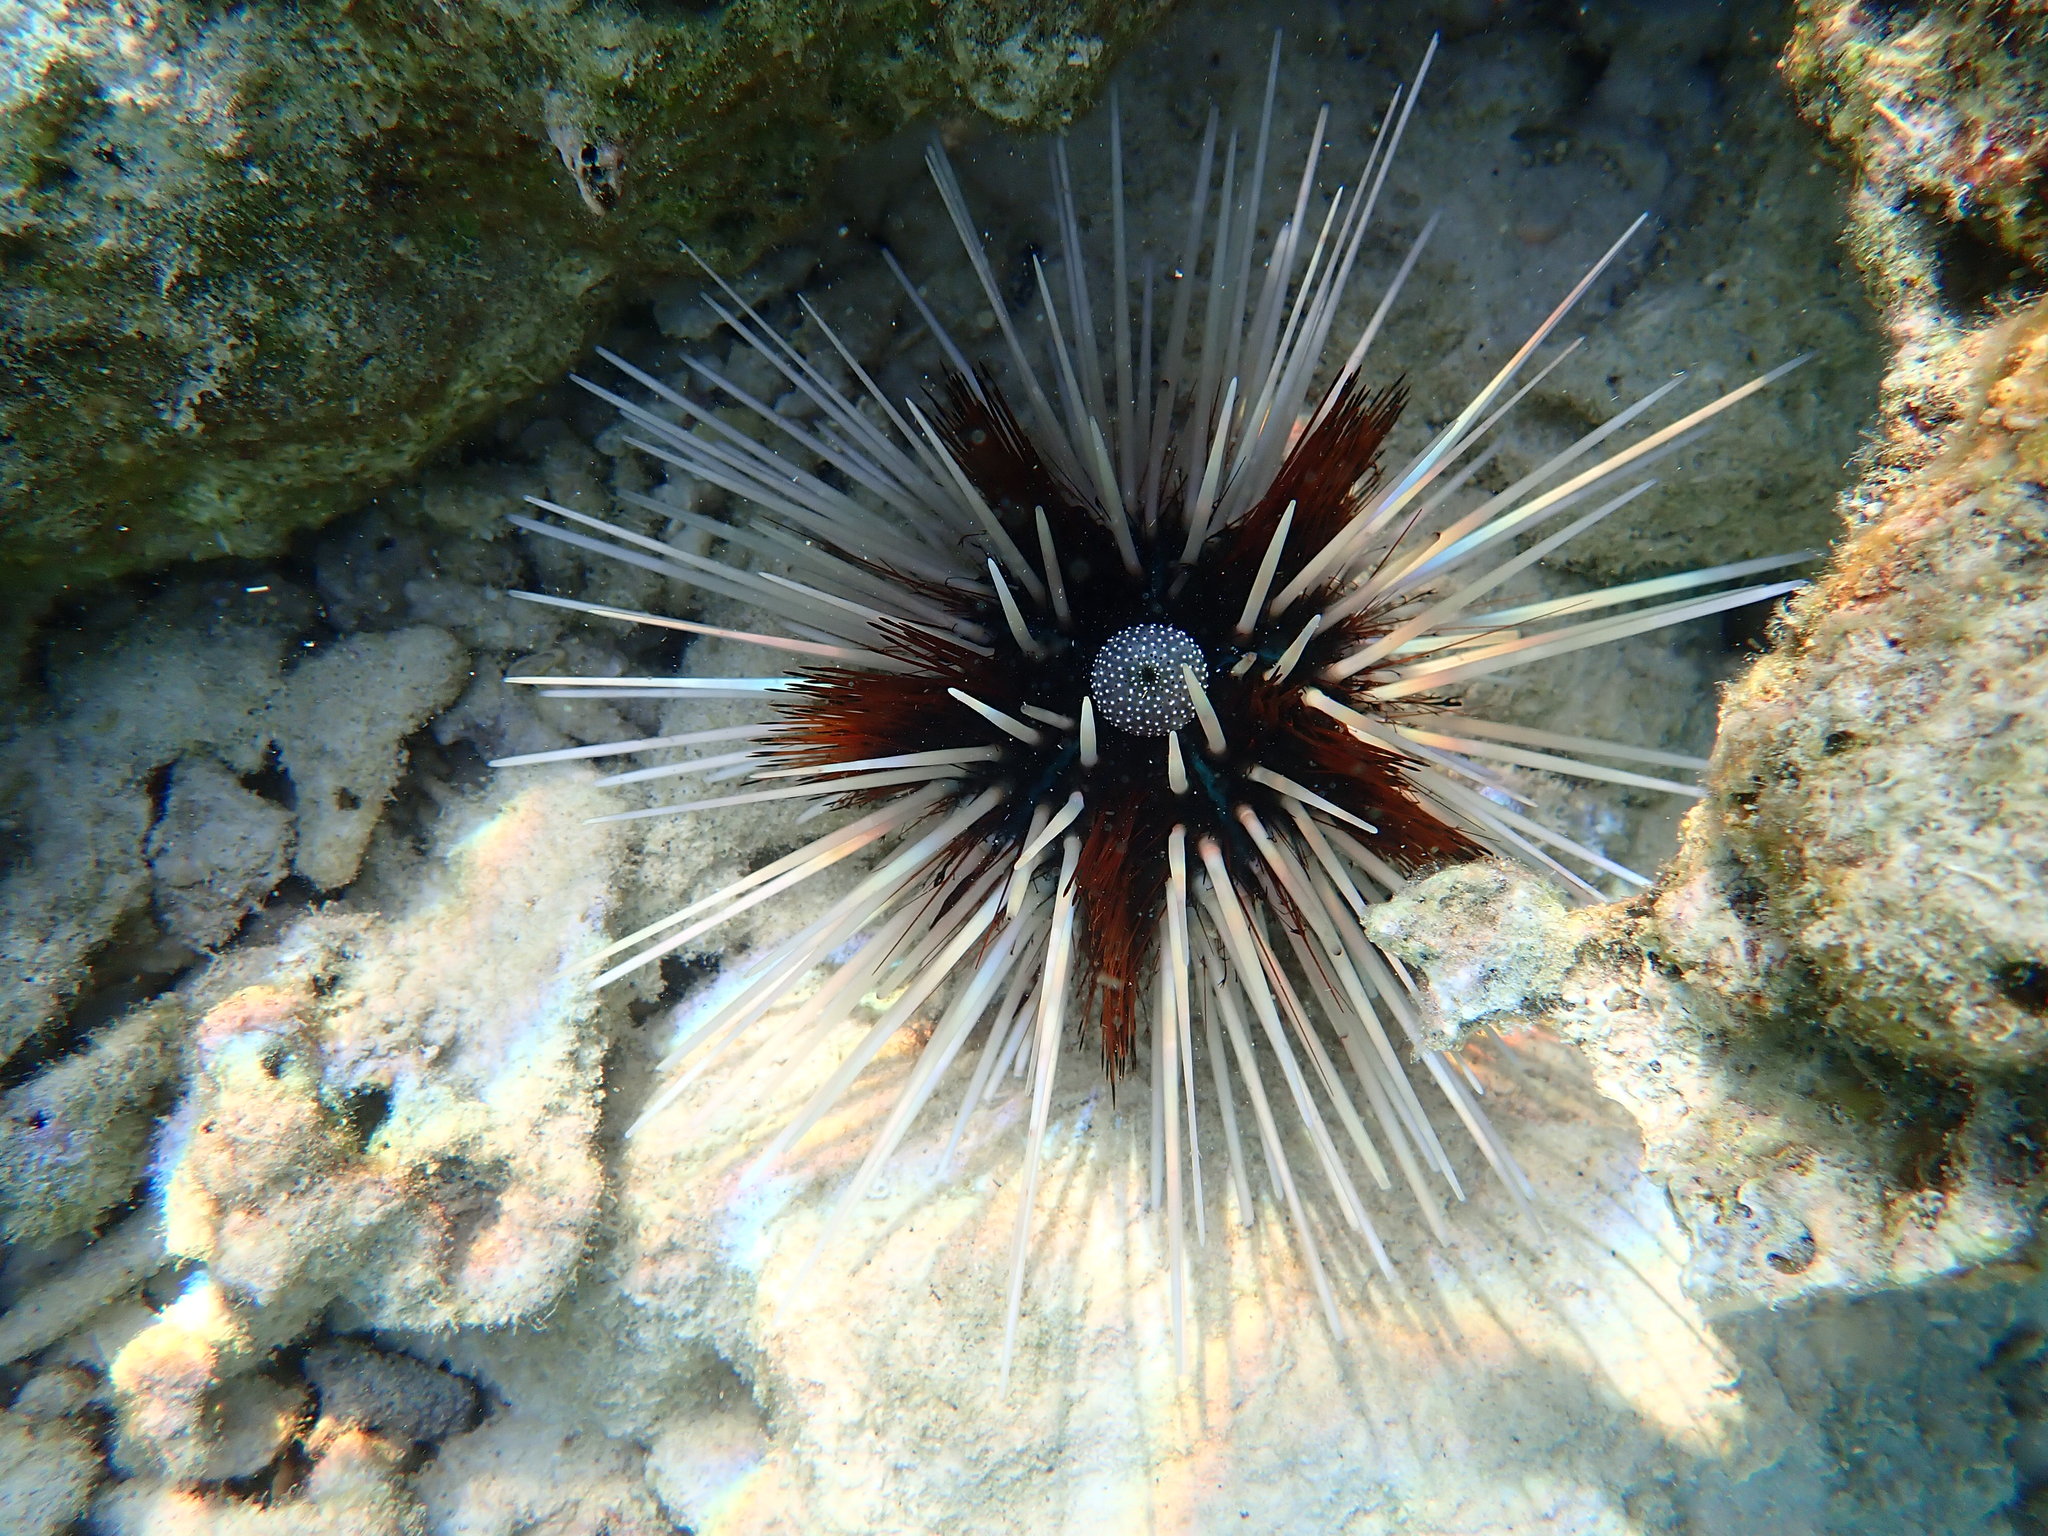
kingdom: Animalia
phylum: Echinodermata
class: Echinoidea
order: Diadematoida
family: Diadematidae
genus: Echinothrix
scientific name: Echinothrix calamaris
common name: Banded sea urchin
